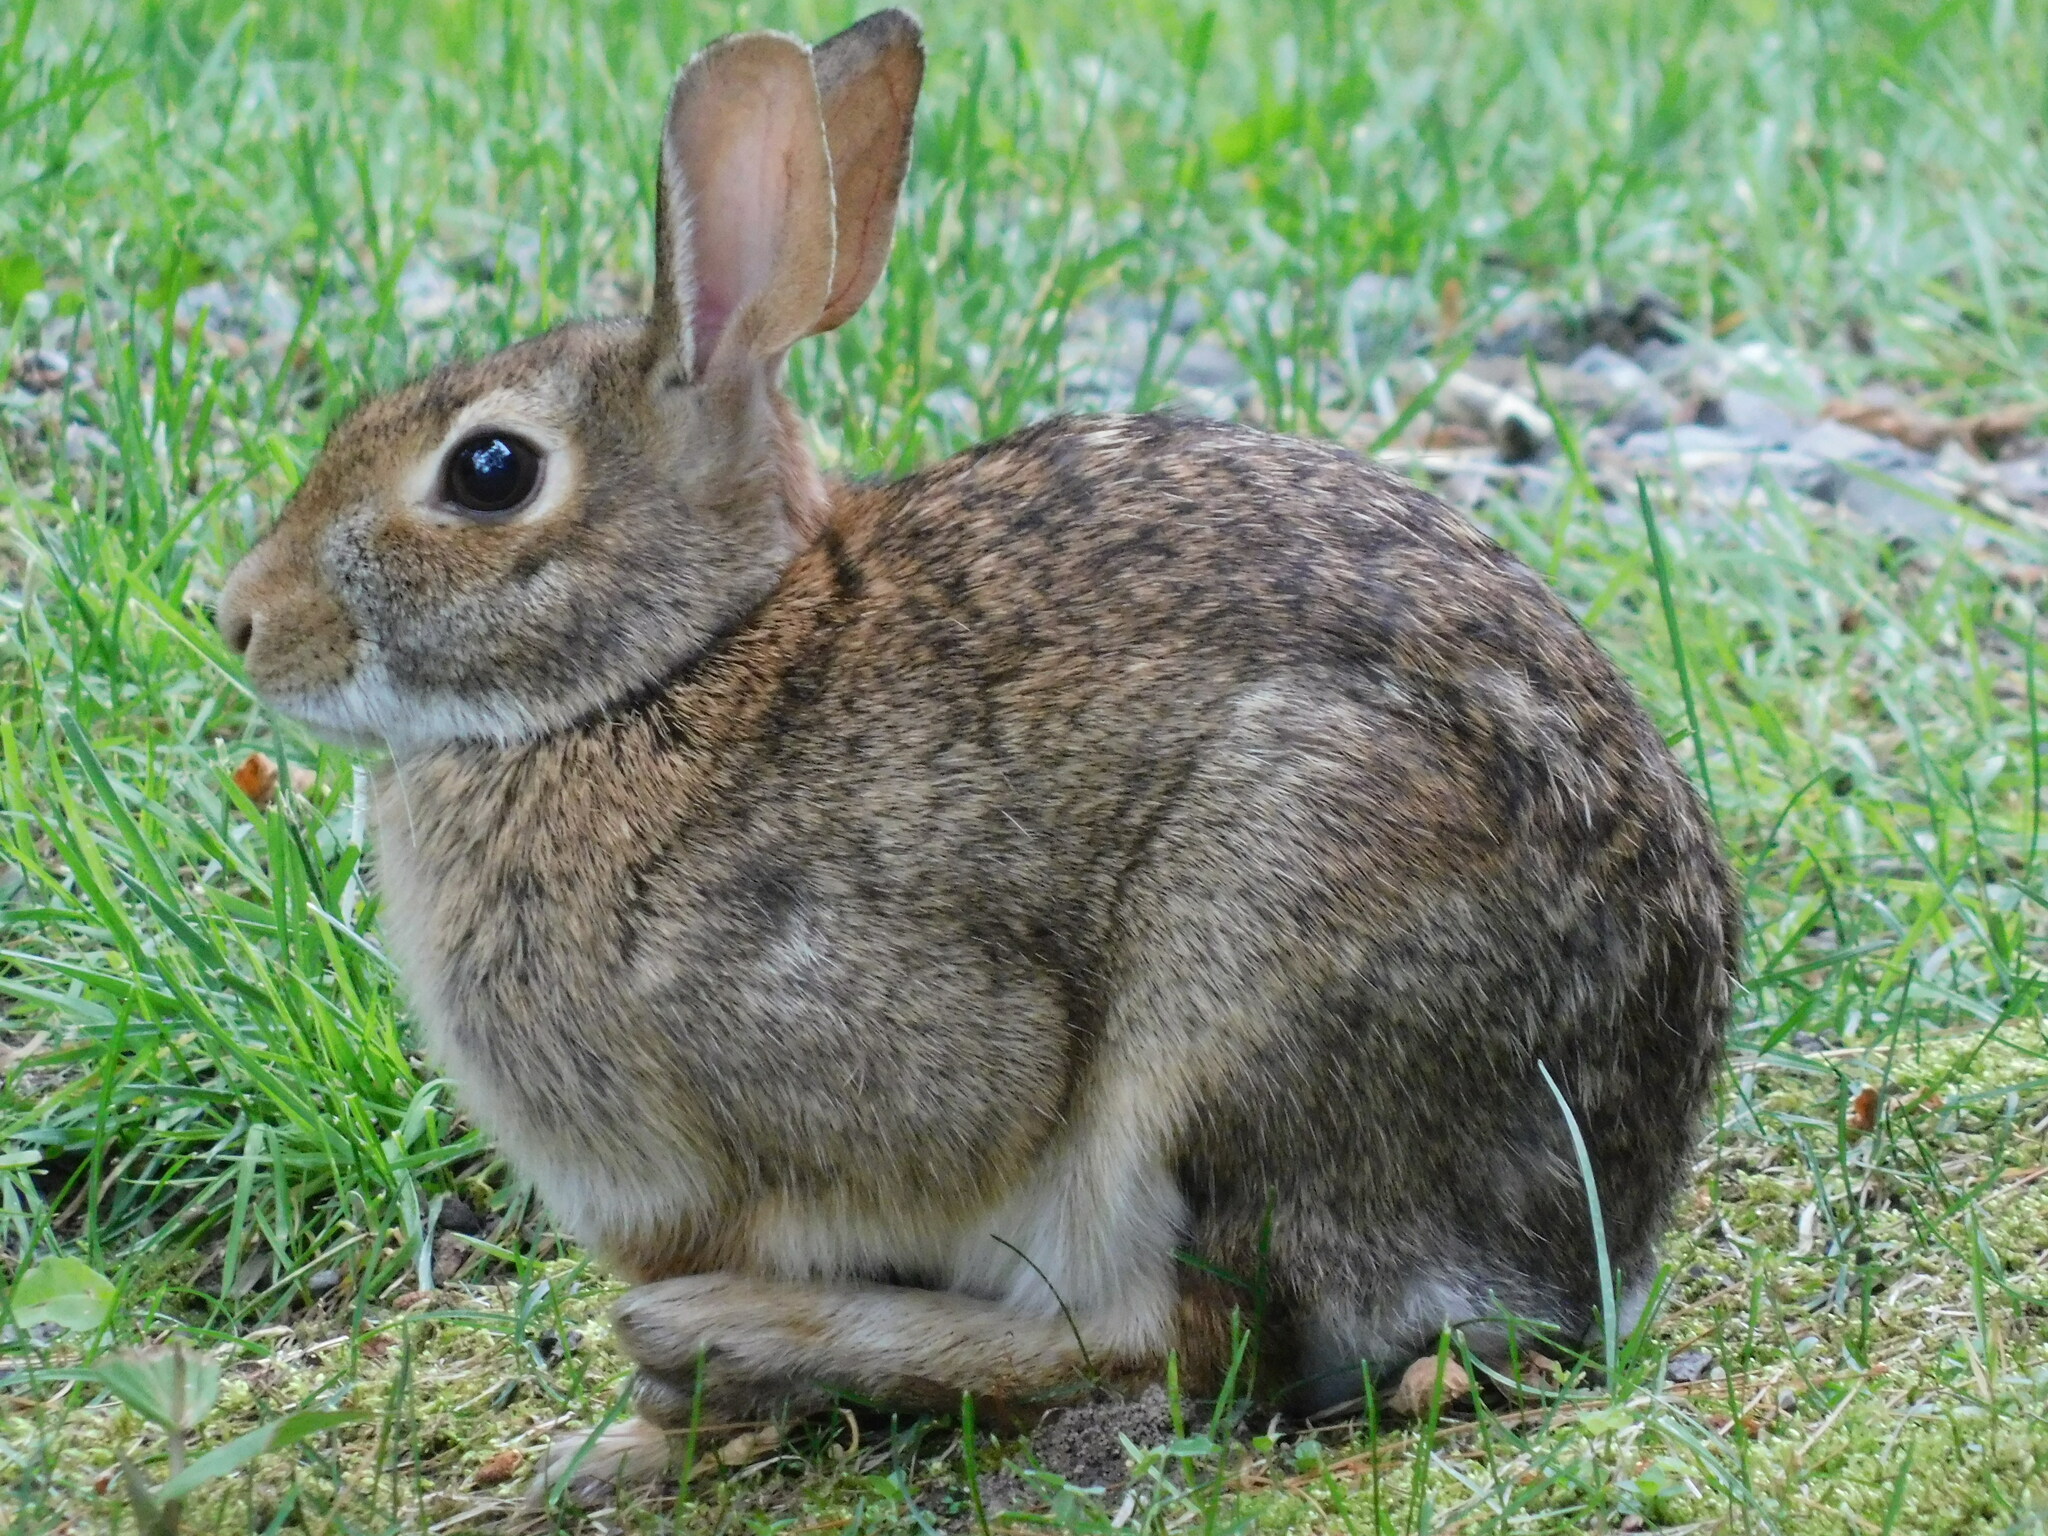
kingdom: Animalia
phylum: Chordata
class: Mammalia
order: Lagomorpha
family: Leporidae
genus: Sylvilagus
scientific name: Sylvilagus floridanus
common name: Eastern cottontail
